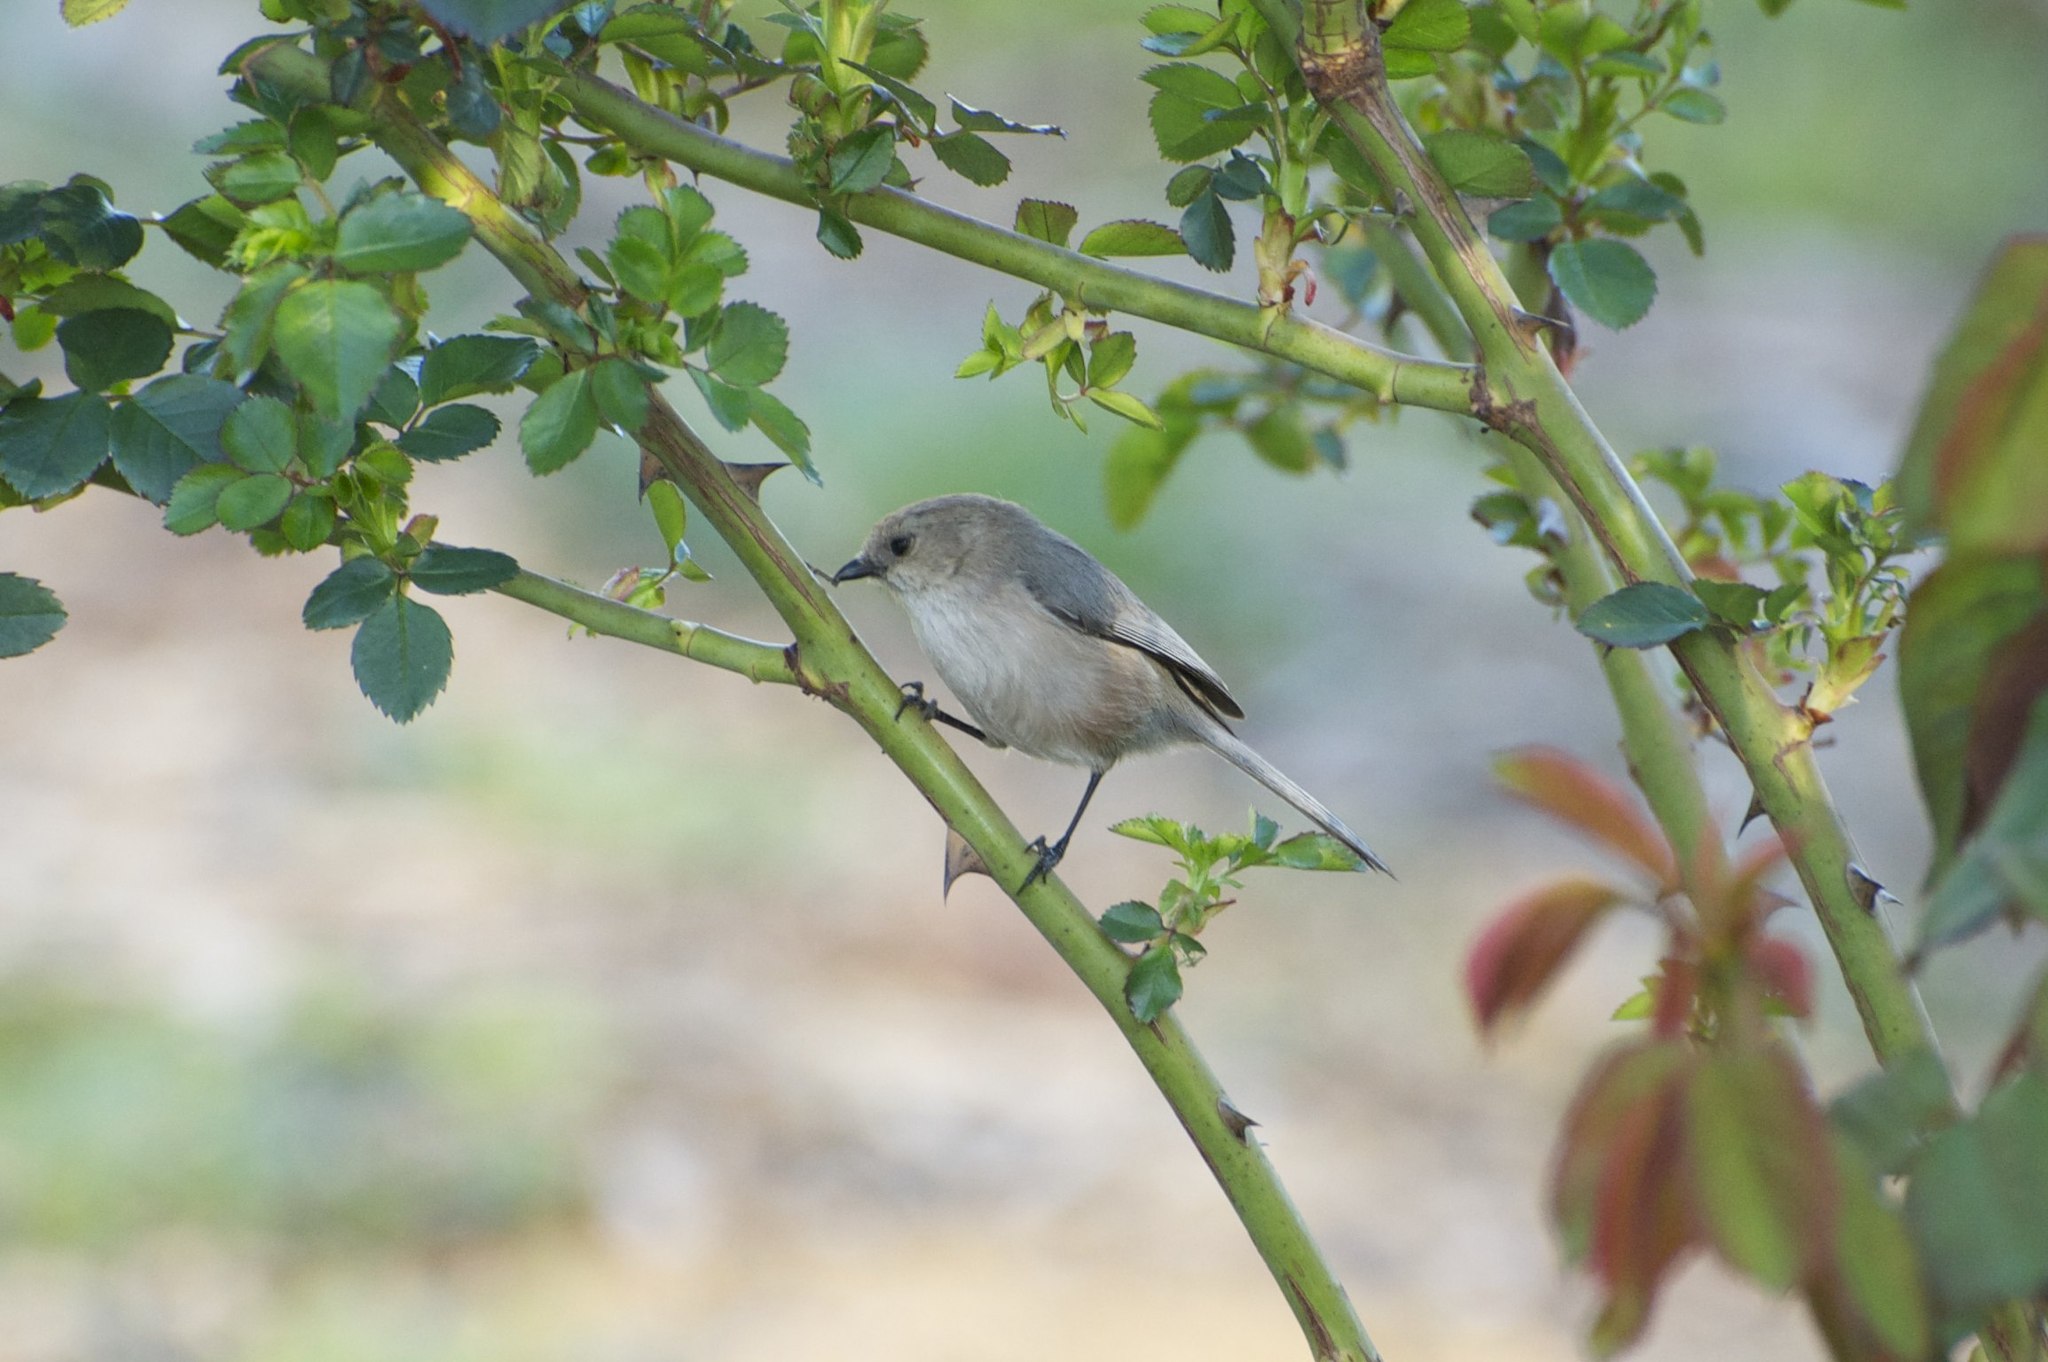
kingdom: Animalia
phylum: Chordata
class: Aves
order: Passeriformes
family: Aegithalidae
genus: Psaltriparus
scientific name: Psaltriparus minimus
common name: American bushtit
